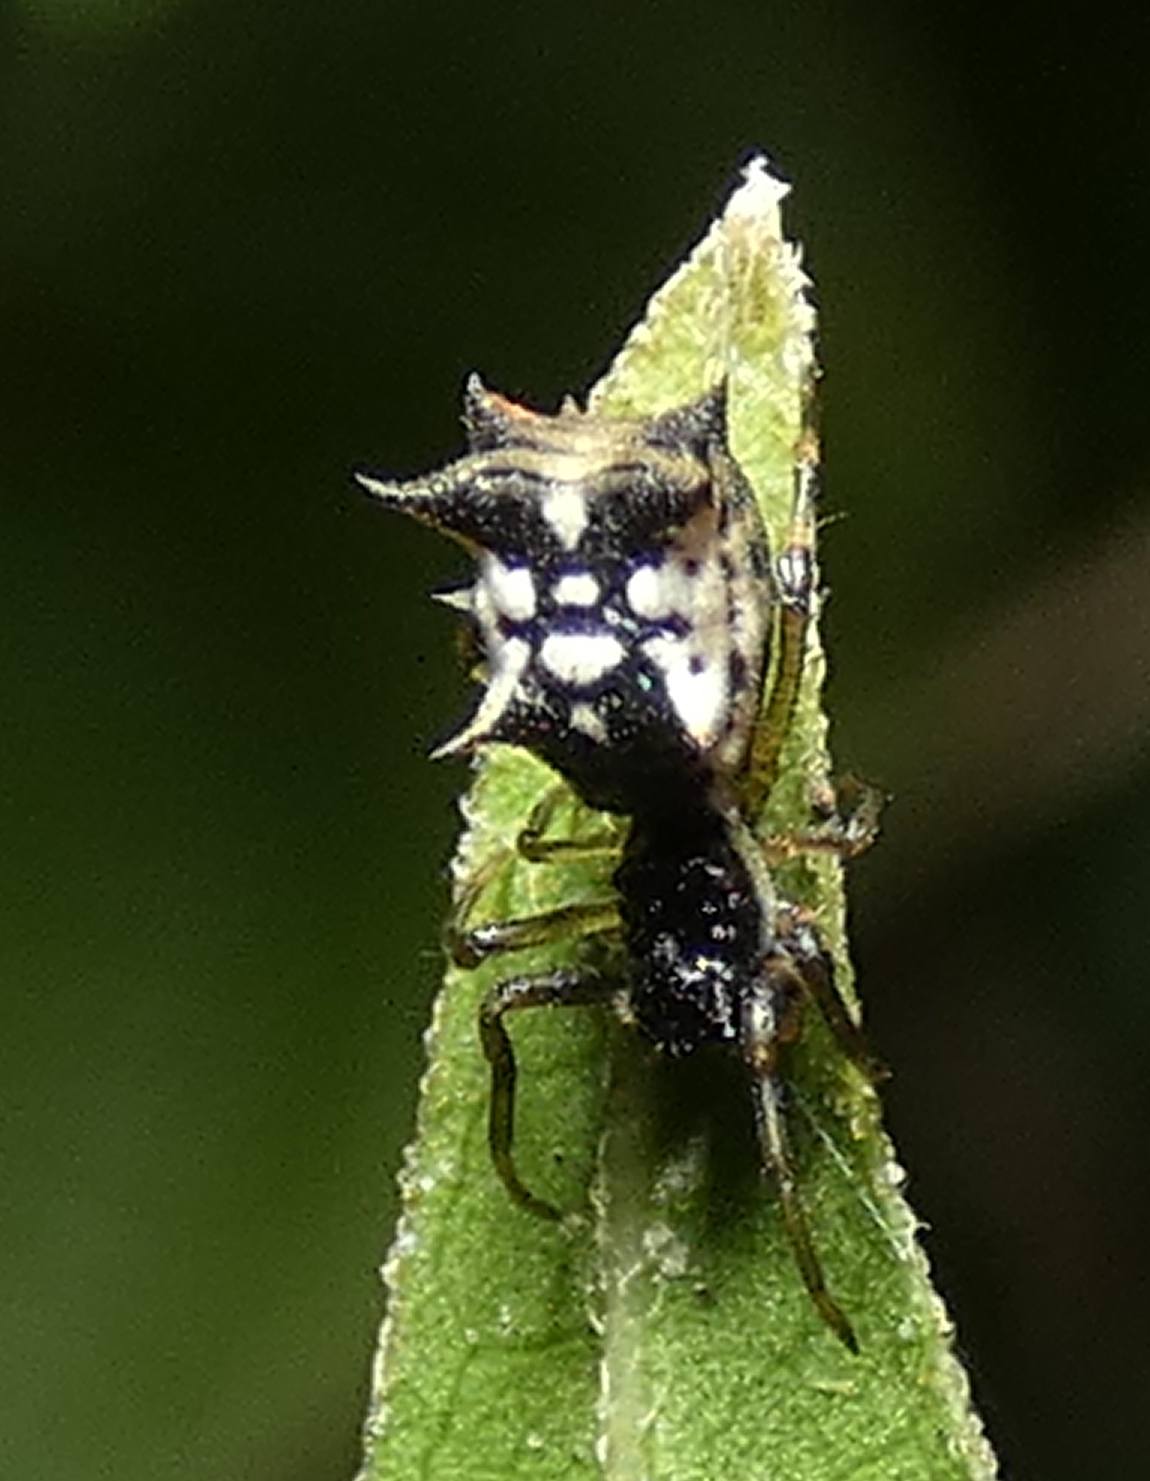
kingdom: Animalia
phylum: Arthropoda
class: Arachnida
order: Araneae
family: Araneidae
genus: Micrathena
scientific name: Micrathena picta
